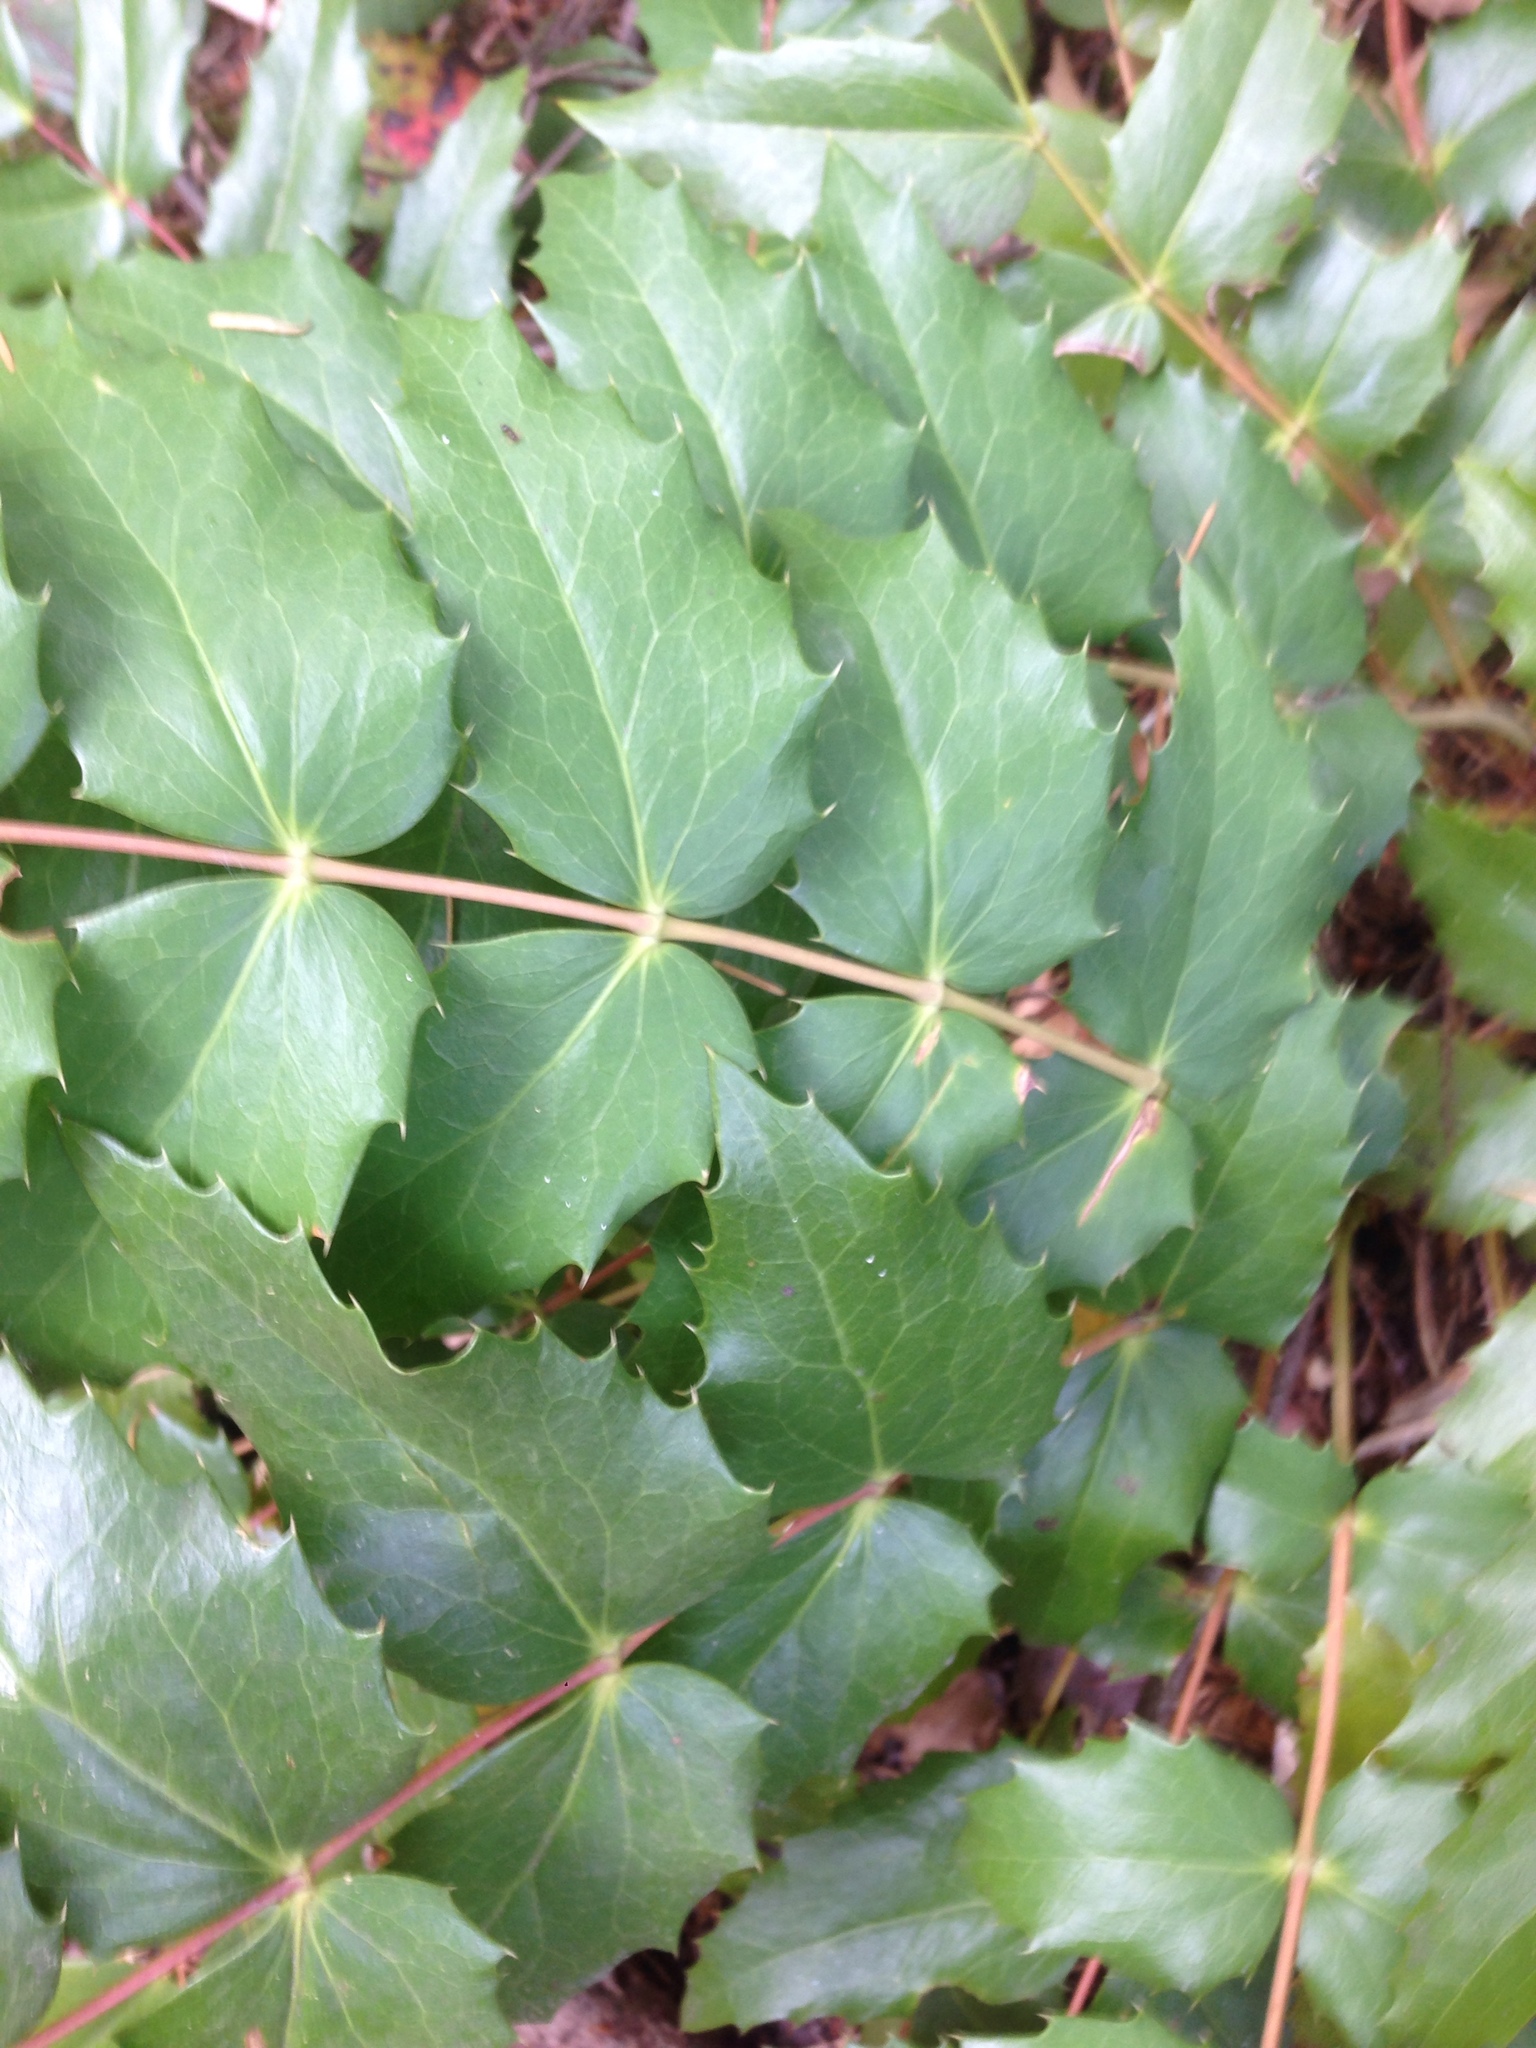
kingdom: Plantae
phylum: Tracheophyta
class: Magnoliopsida
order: Ranunculales
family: Berberidaceae
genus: Mahonia
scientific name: Mahonia nervosa
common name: Cascade oregon-grape
